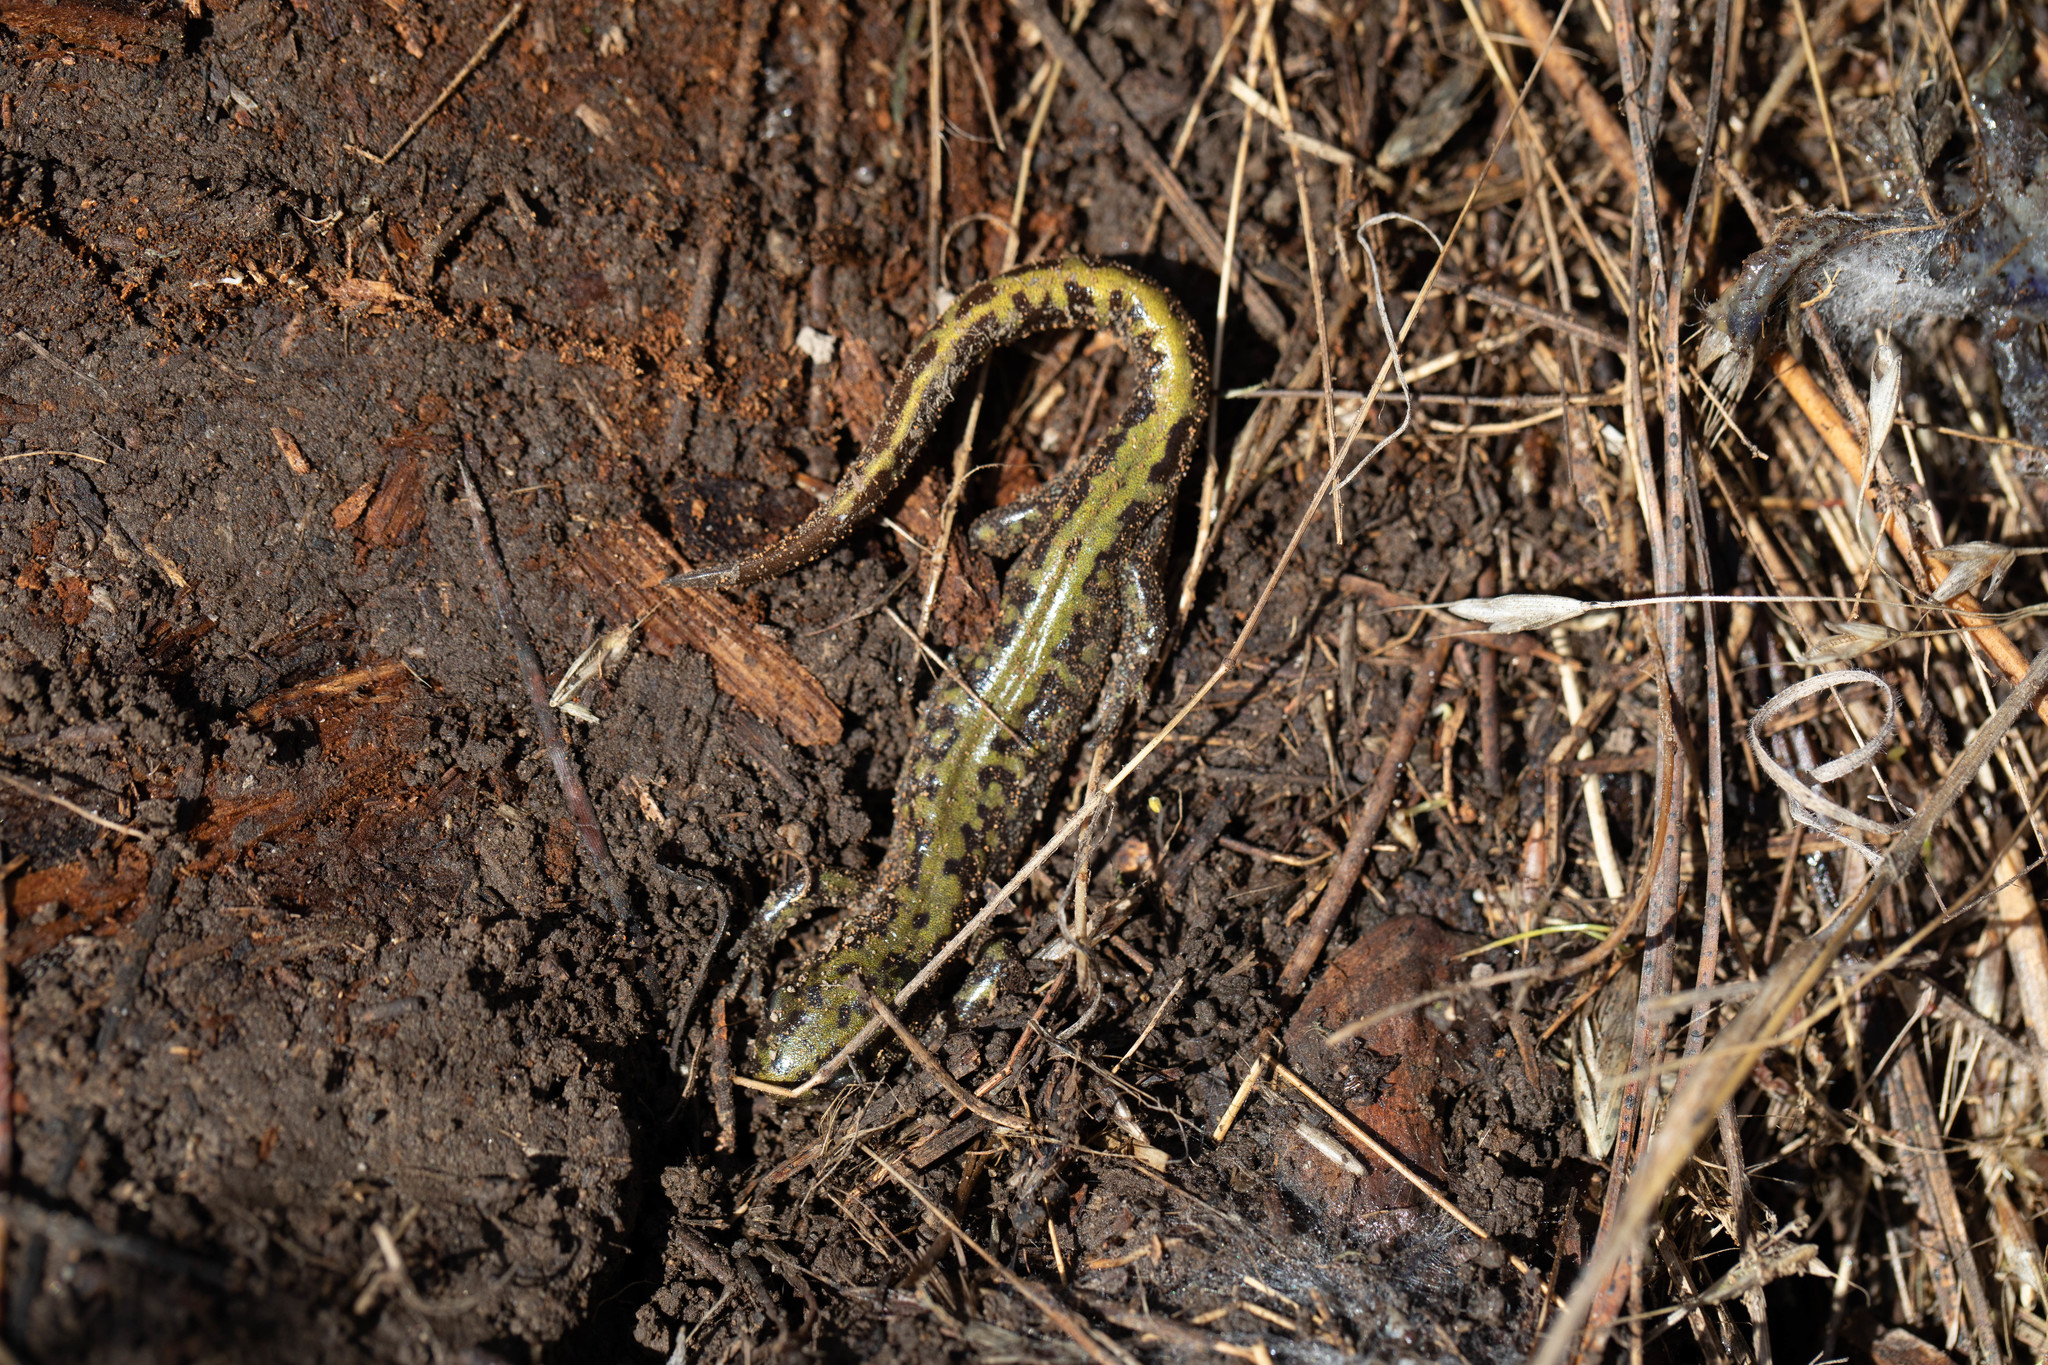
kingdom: Animalia
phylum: Chordata
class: Amphibia
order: Caudata
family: Ambystomatidae
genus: Ambystoma
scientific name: Ambystoma macrodactylum
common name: Long-toed salamander
